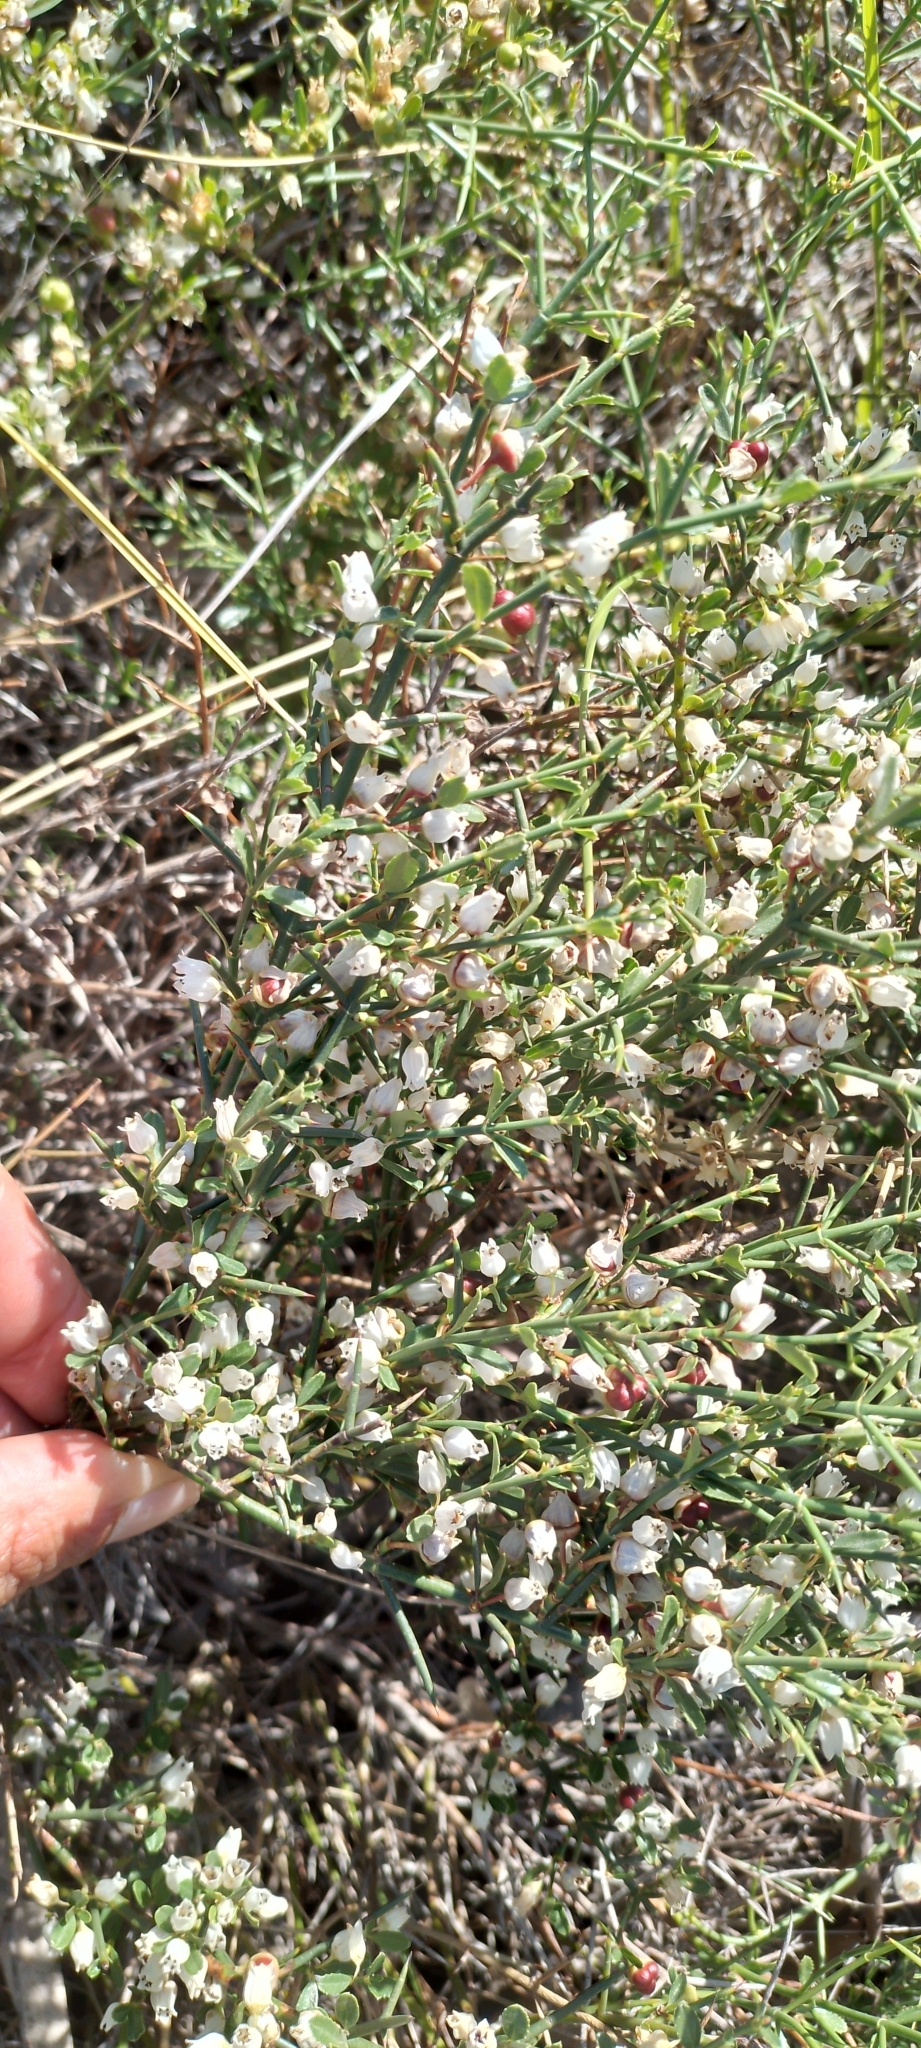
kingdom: Plantae
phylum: Tracheophyta
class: Magnoliopsida
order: Rosales
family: Rhamnaceae
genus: Discaria
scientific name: Discaria americana
